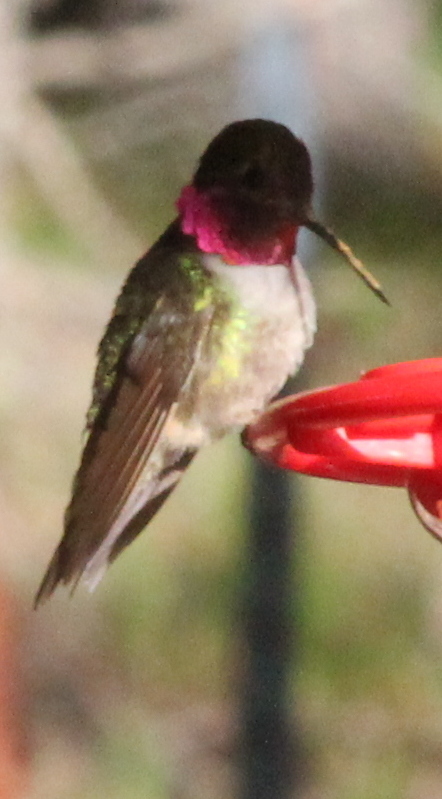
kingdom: Animalia
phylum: Chordata
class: Aves
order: Apodiformes
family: Trochilidae
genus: Selasphorus
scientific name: Selasphorus platycercus
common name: Broad-tailed hummingbird
